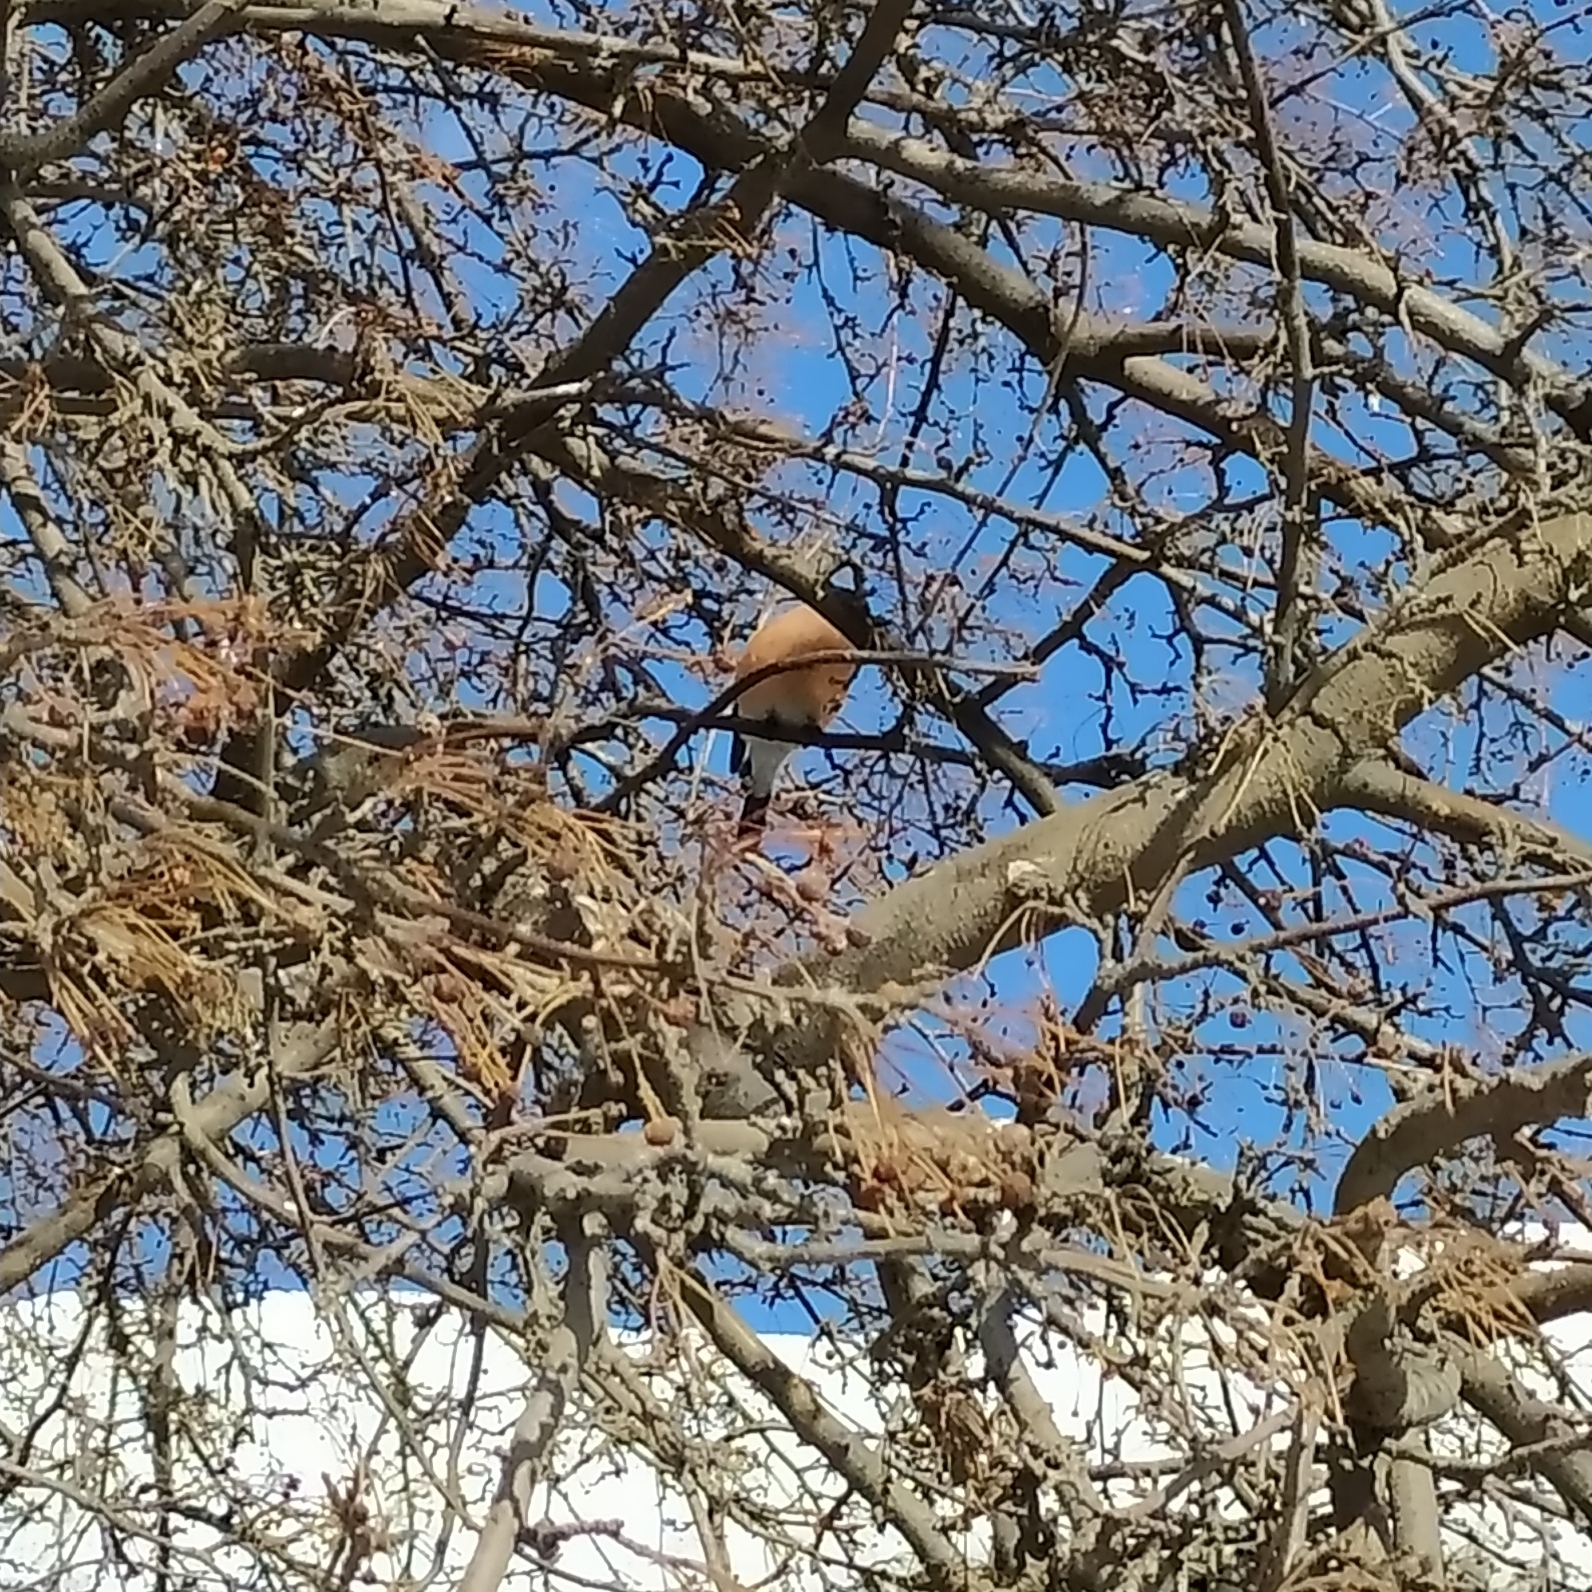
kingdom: Animalia
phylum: Chordata
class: Aves
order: Passeriformes
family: Fringillidae
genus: Pyrrhula
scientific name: Pyrrhula pyrrhula
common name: Eurasian bullfinch
